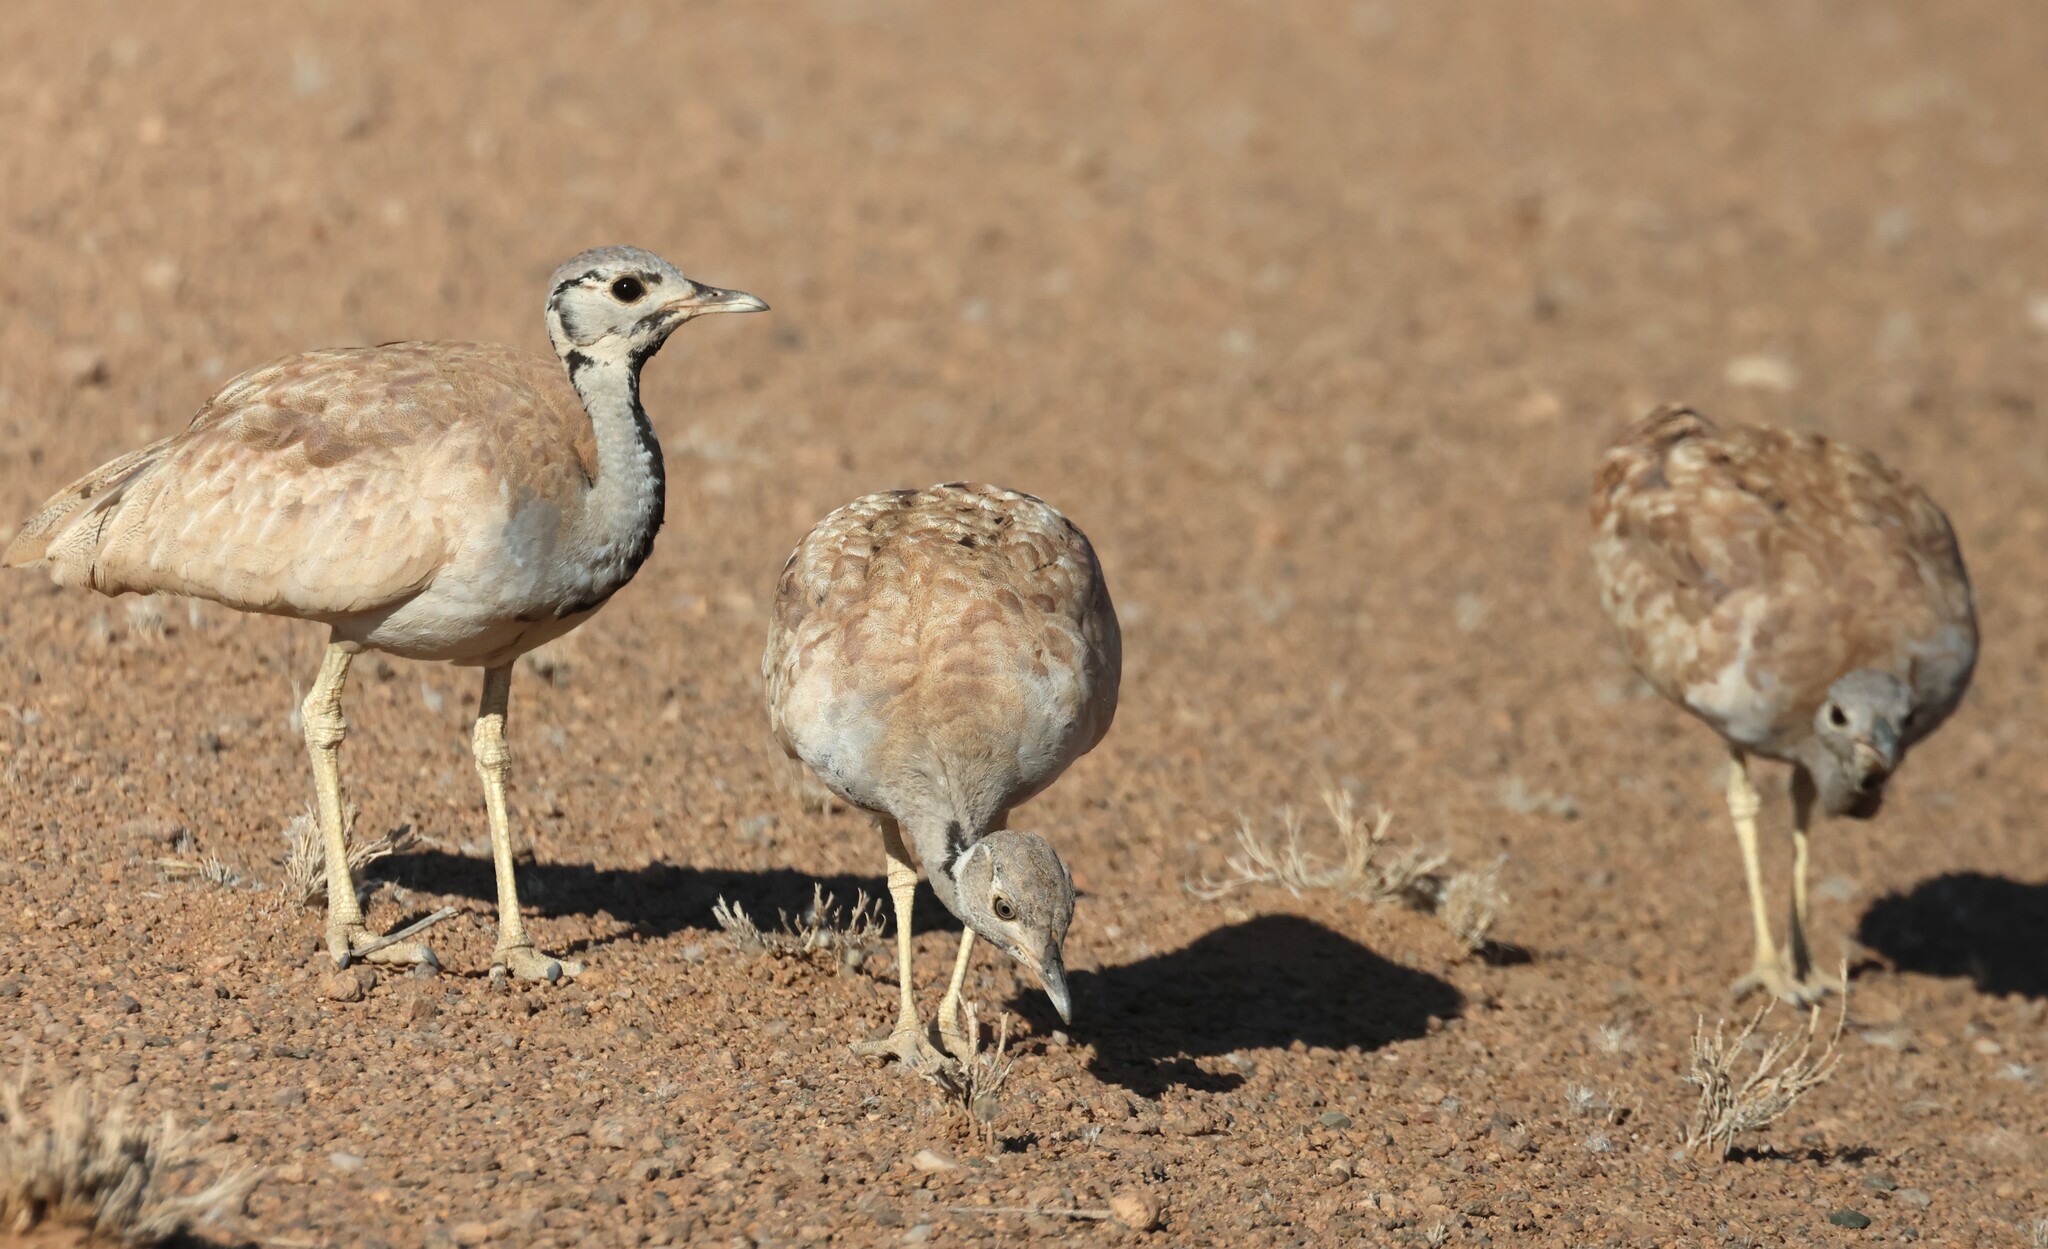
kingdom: Animalia
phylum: Chordata
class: Aves
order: Otidiformes
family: Otididae
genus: Heterotetrax
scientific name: Heterotetrax rueppelii
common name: Rüppell's korhaan
